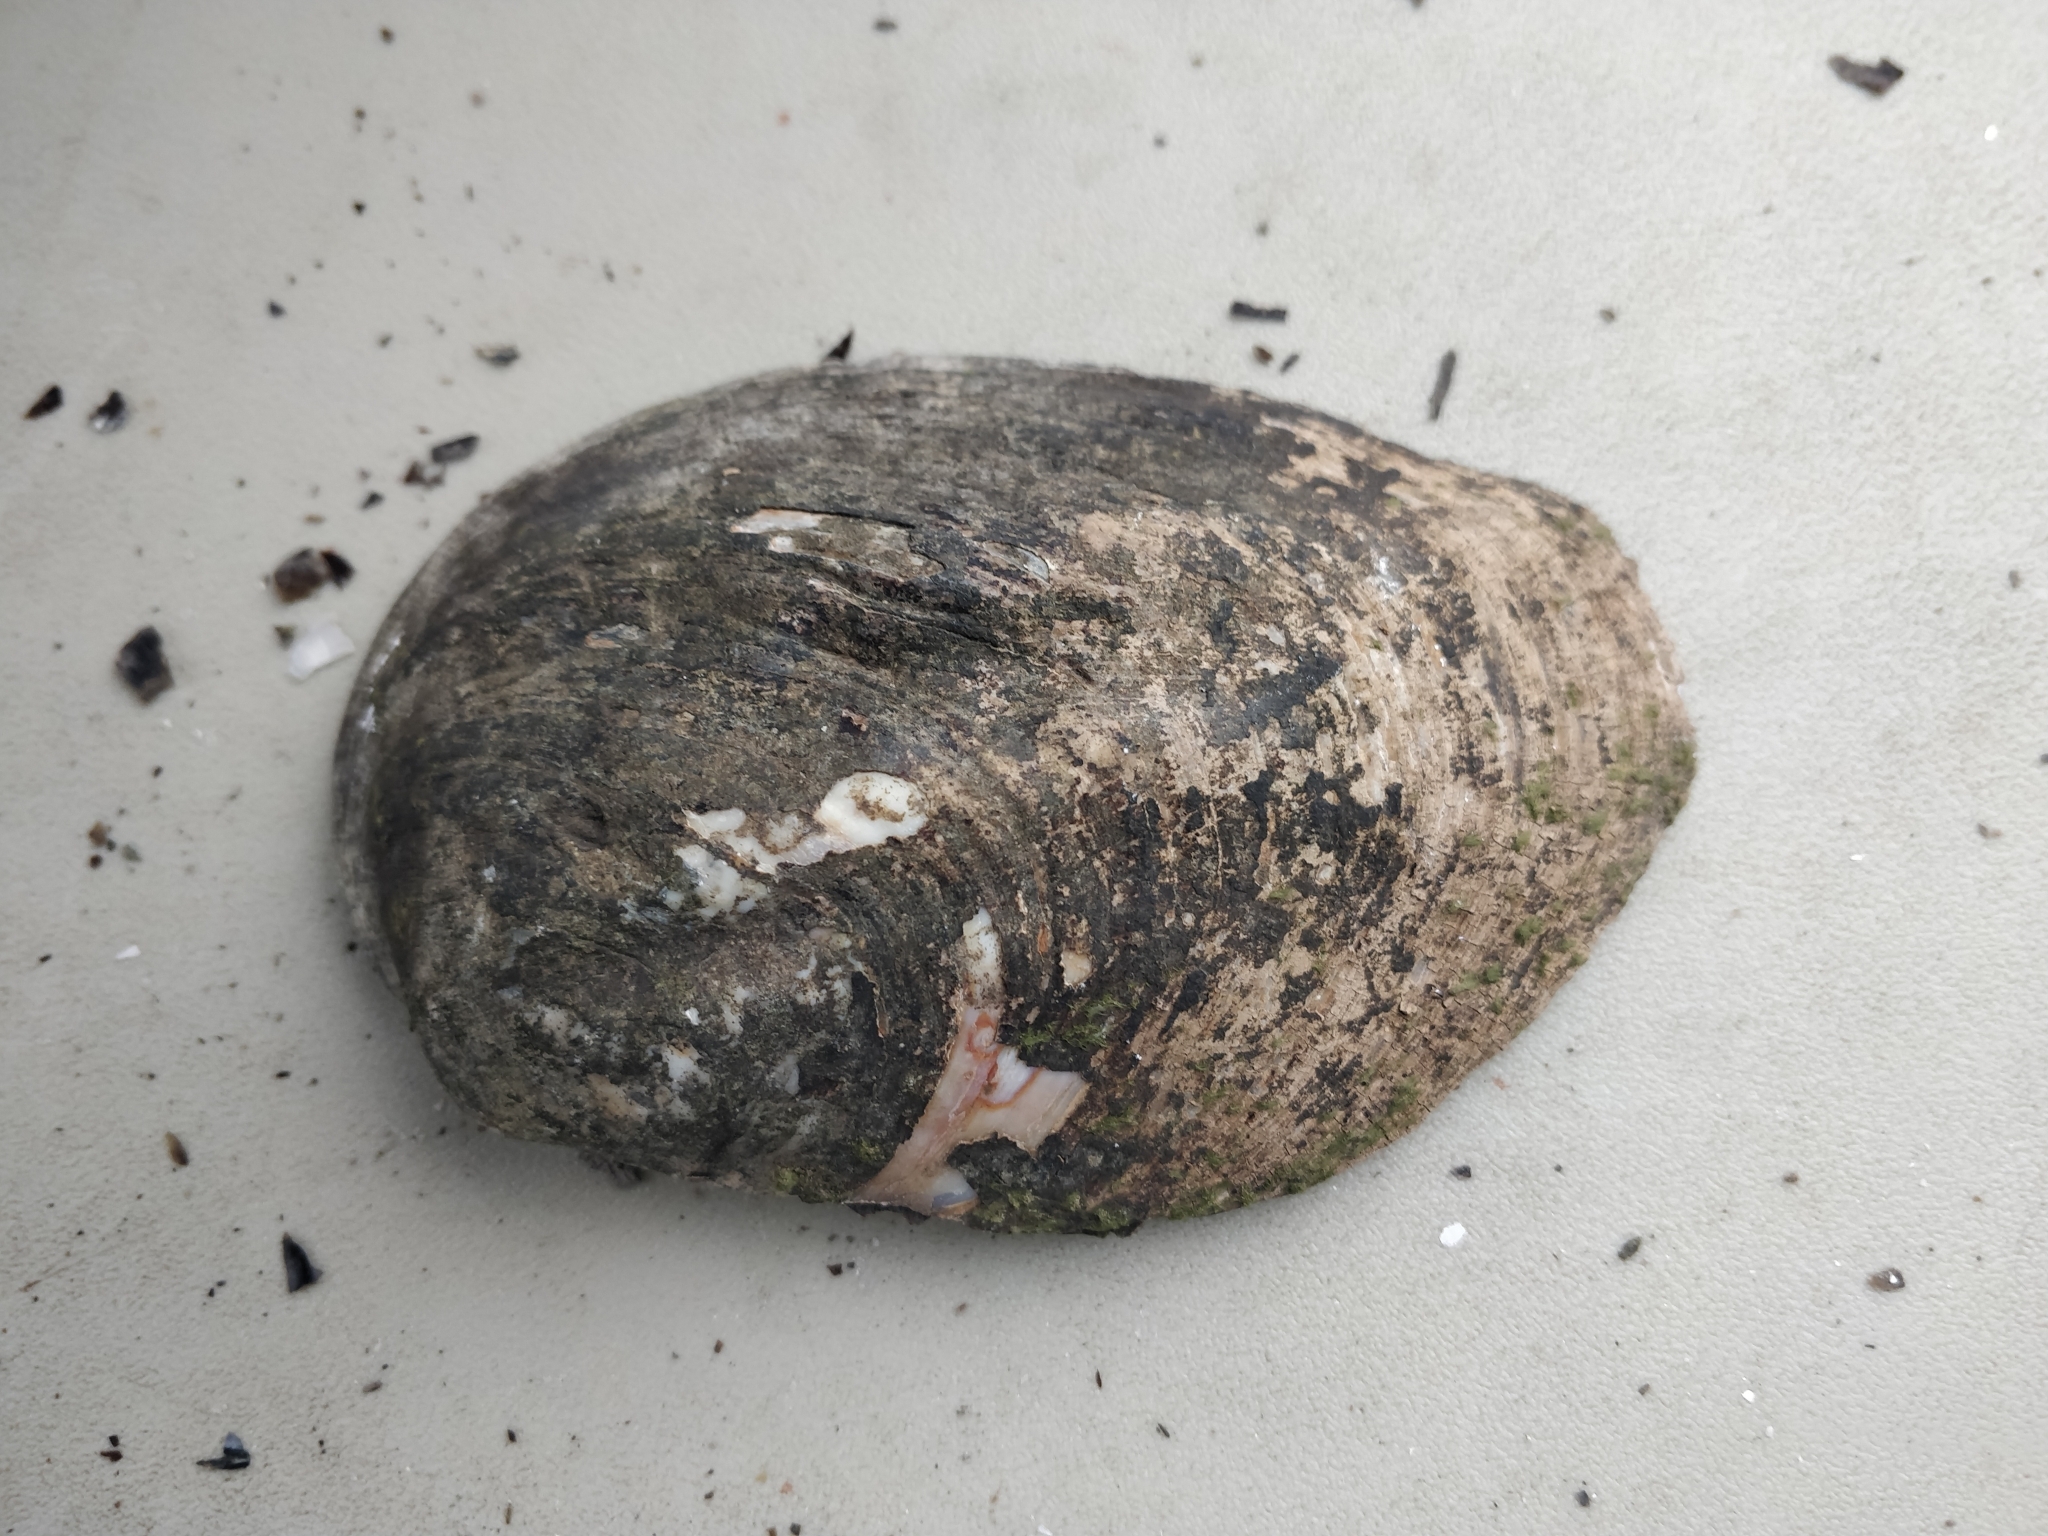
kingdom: Animalia
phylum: Mollusca
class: Bivalvia
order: Unionida
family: Unionidae
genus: Amblema
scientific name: Amblema plicata
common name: Threeridge
